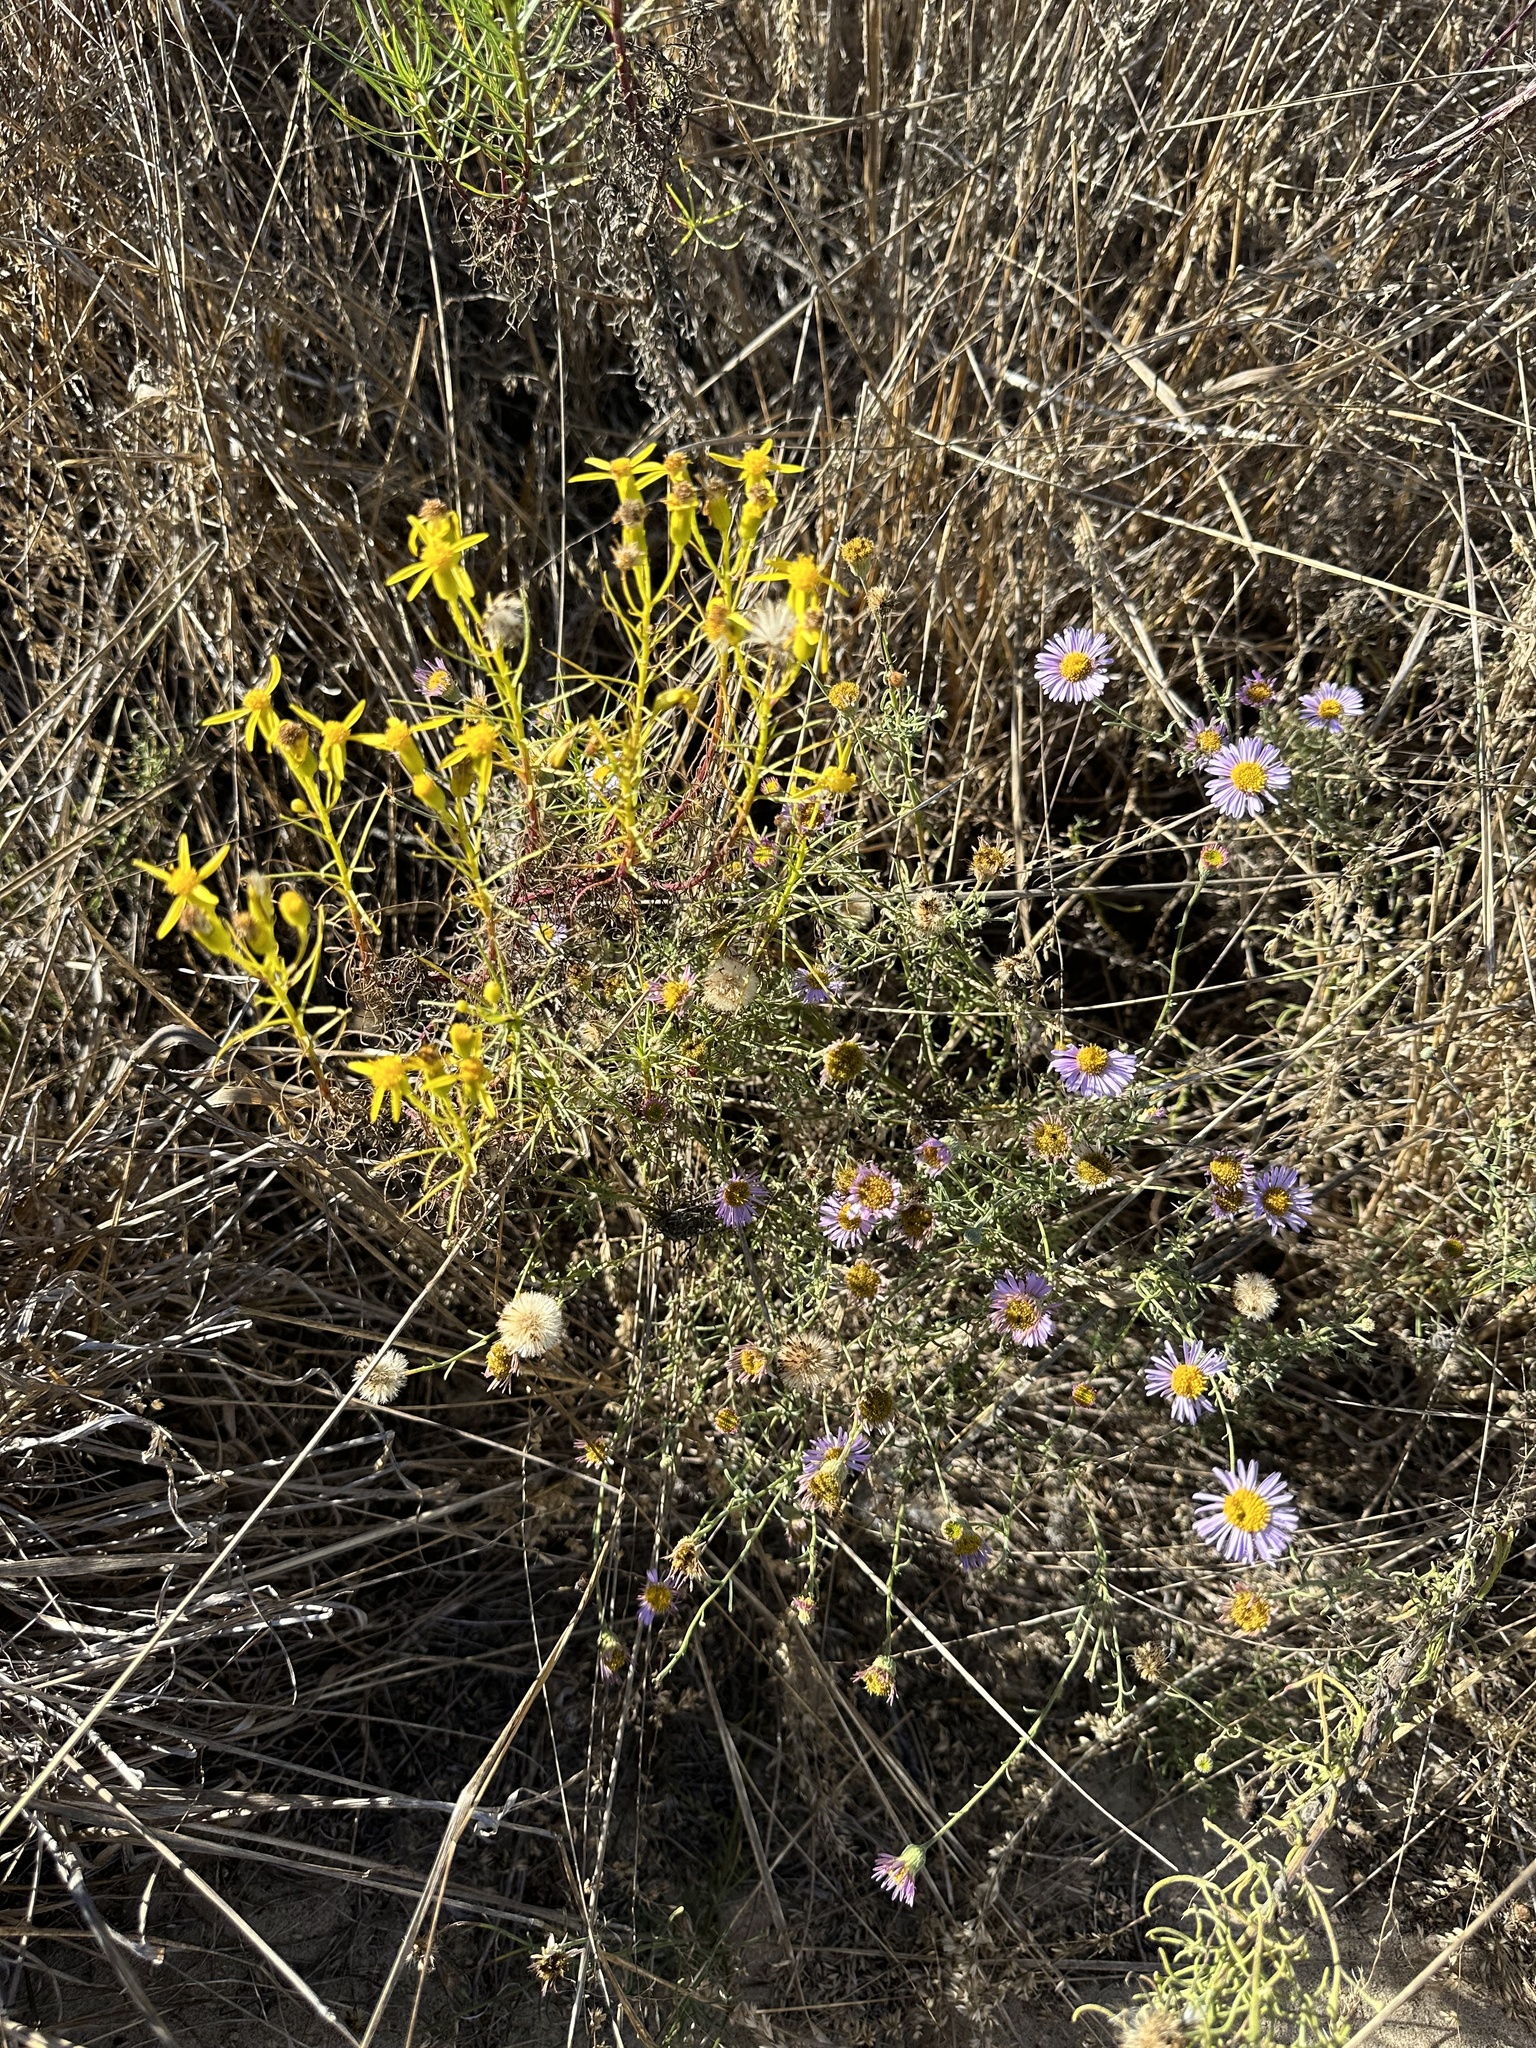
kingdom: Plantae
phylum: Tracheophyta
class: Magnoliopsida
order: Asterales
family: Asteraceae
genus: Erigeron
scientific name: Erigeron blochmaniae
